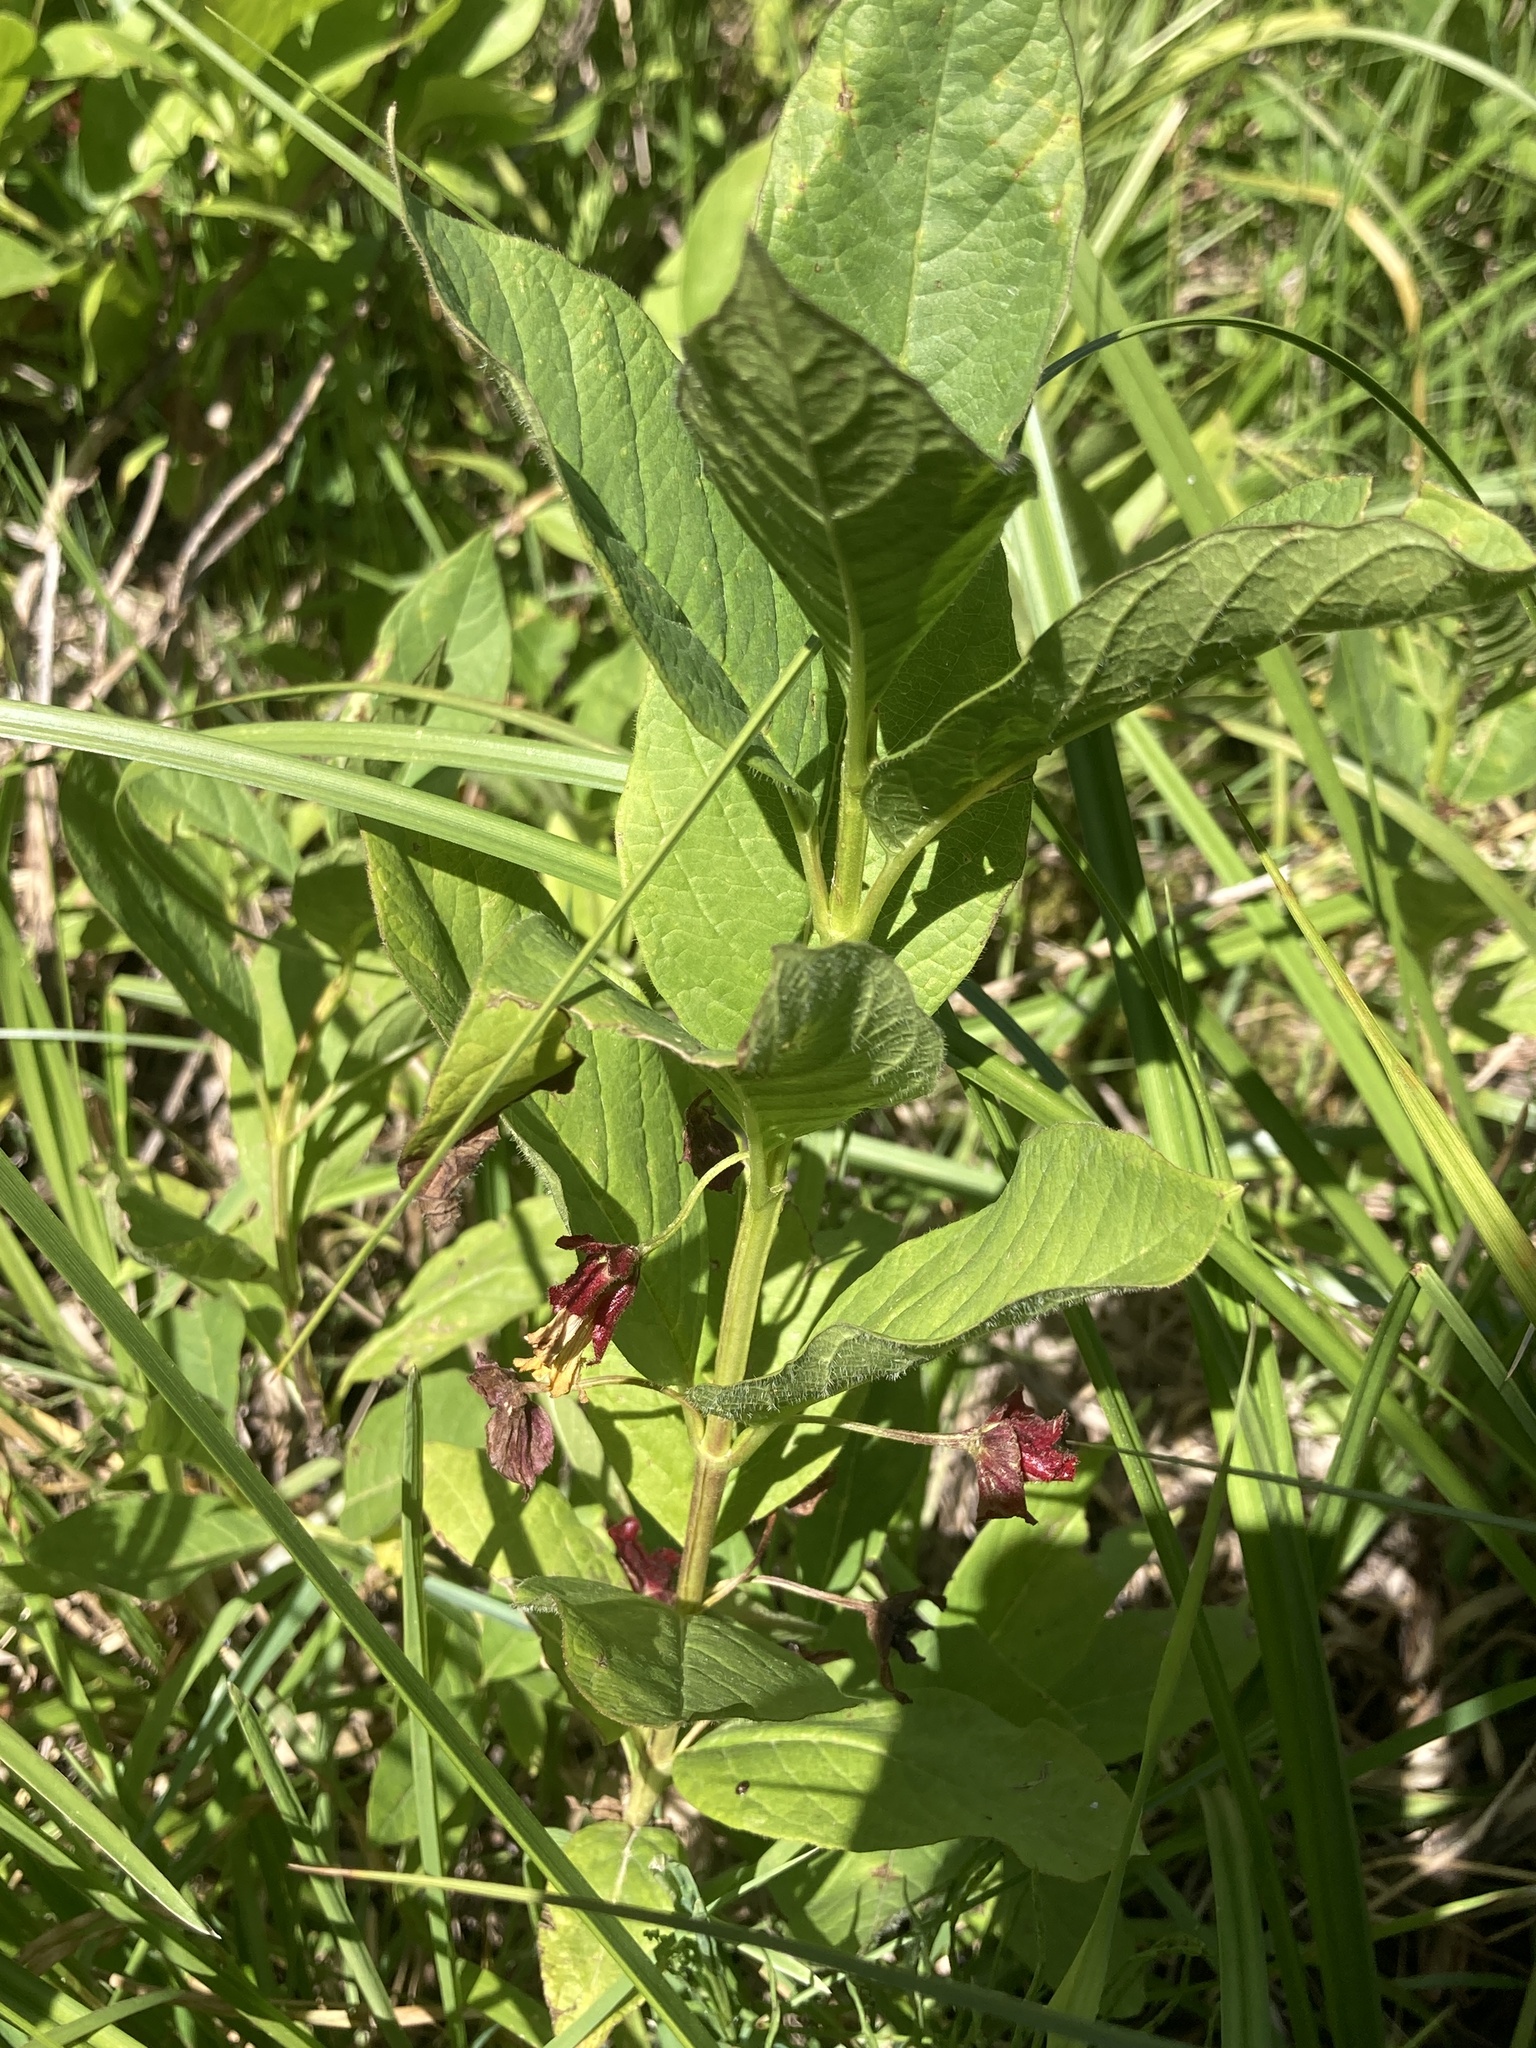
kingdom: Plantae
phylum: Tracheophyta
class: Magnoliopsida
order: Dipsacales
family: Caprifoliaceae
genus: Lonicera
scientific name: Lonicera involucrata
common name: Californian honeysuckle
